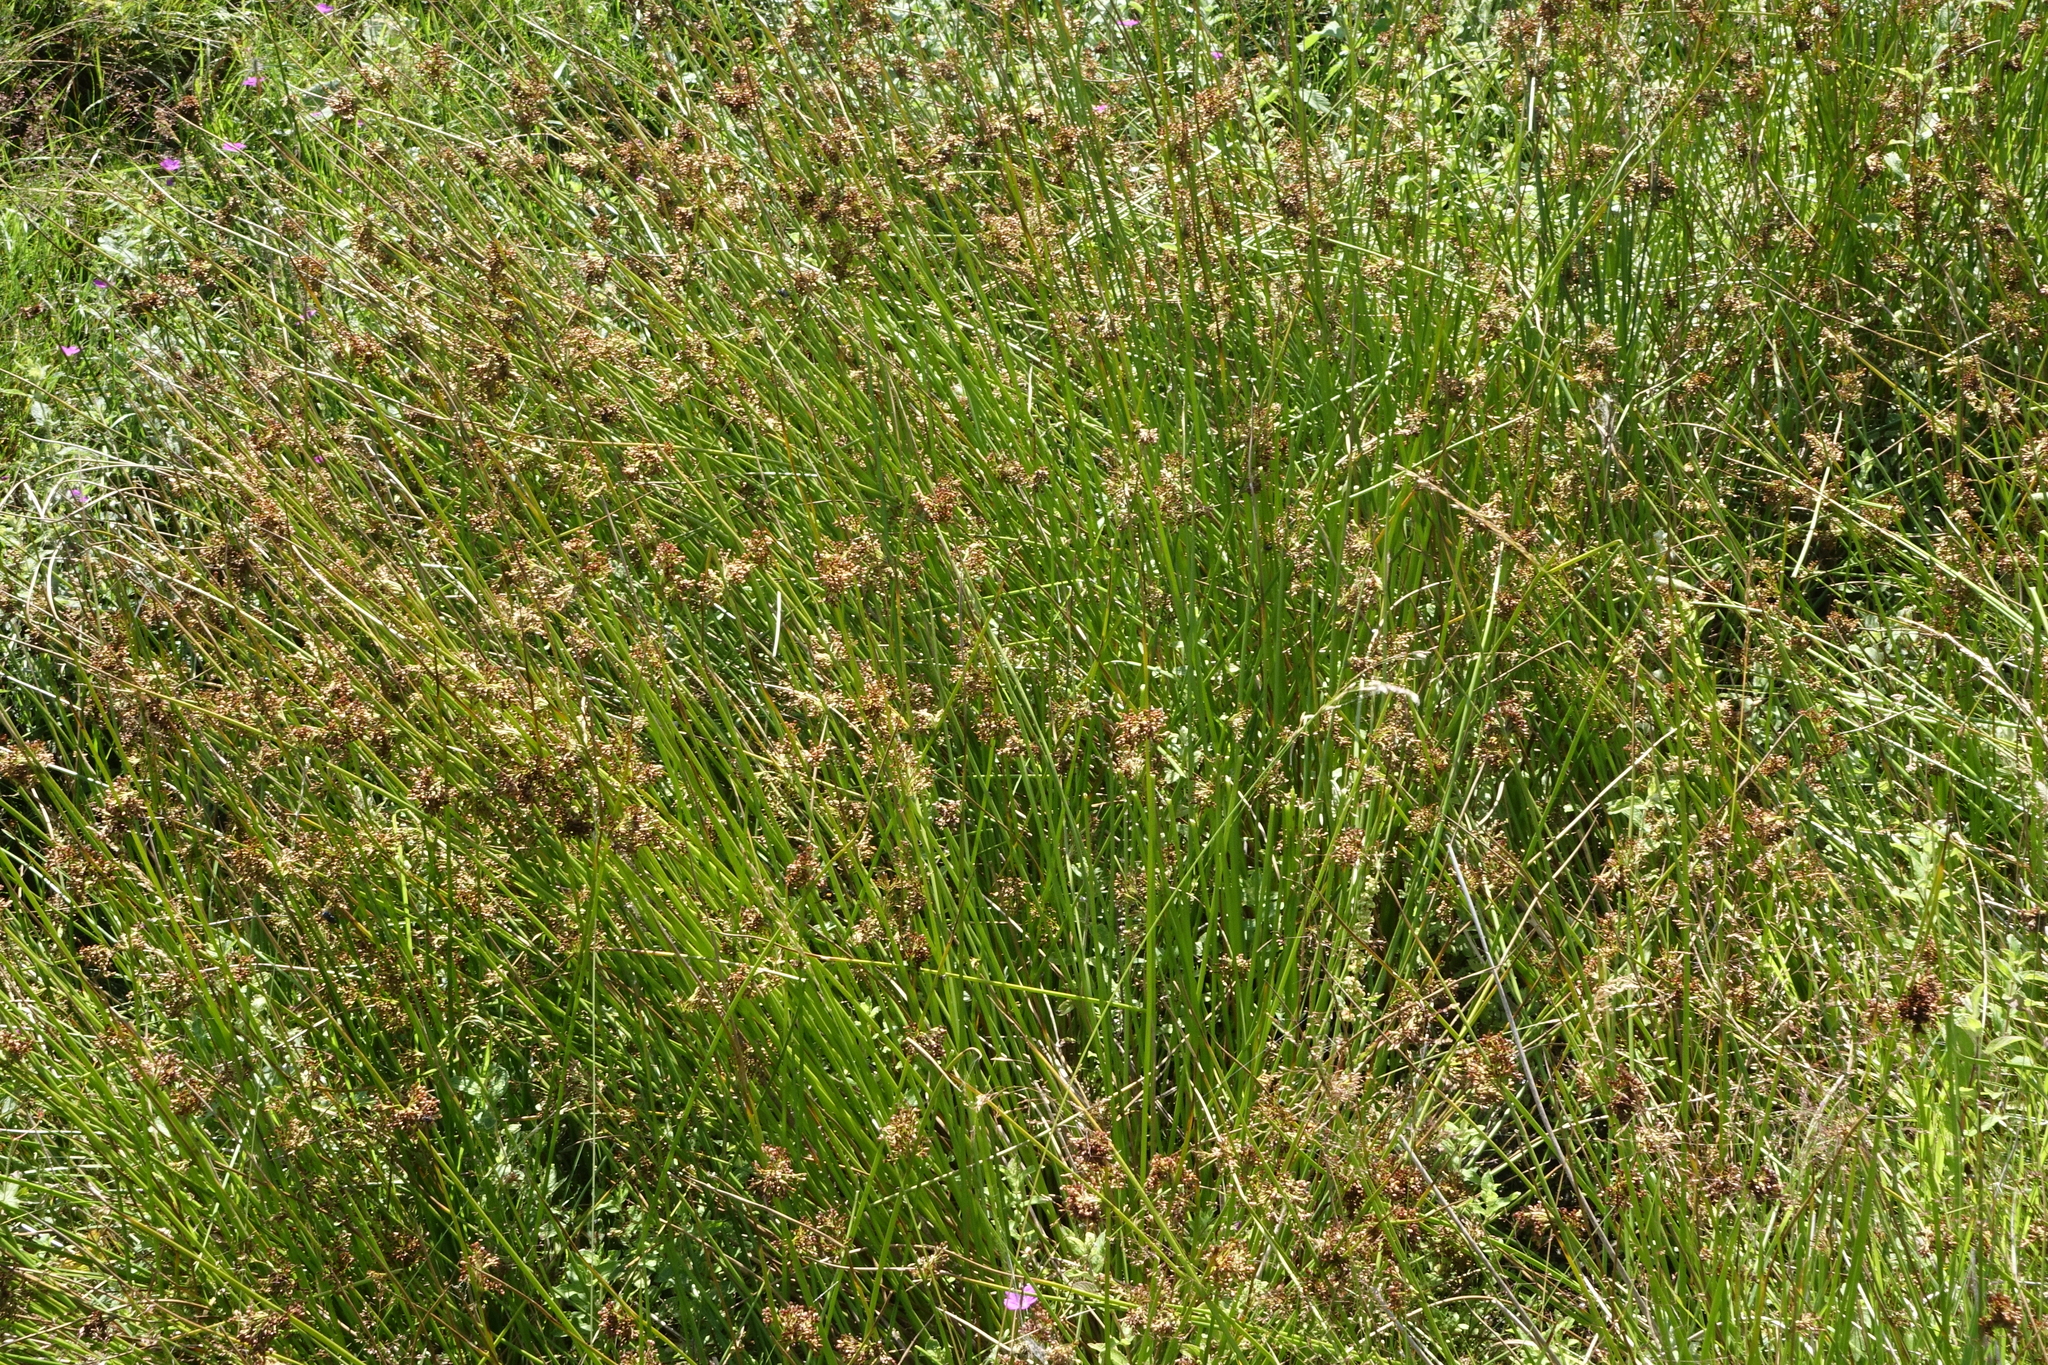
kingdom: Plantae
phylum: Tracheophyta
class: Liliopsida
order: Poales
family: Juncaceae
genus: Juncus
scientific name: Juncus effusus
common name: Soft rush
